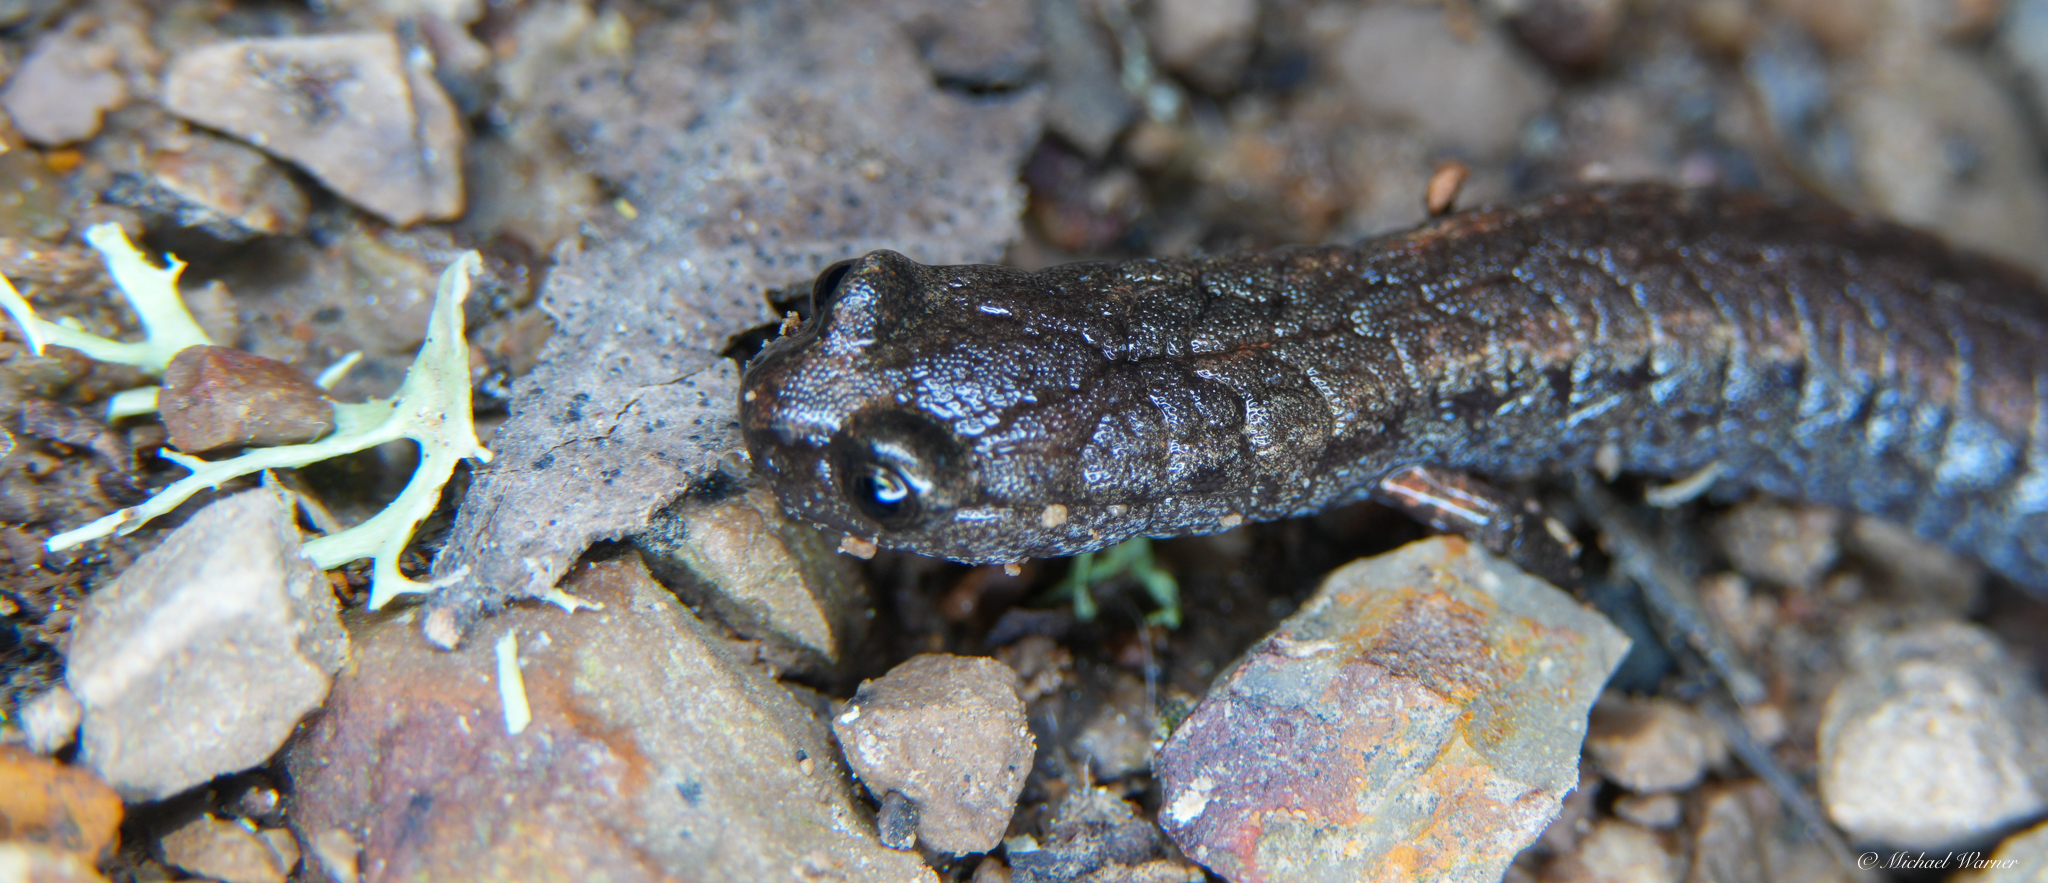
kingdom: Animalia
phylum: Chordata
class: Amphibia
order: Caudata
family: Plethodontidae
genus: Batrachoseps
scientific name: Batrachoseps attenuatus
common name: California slender salamander
